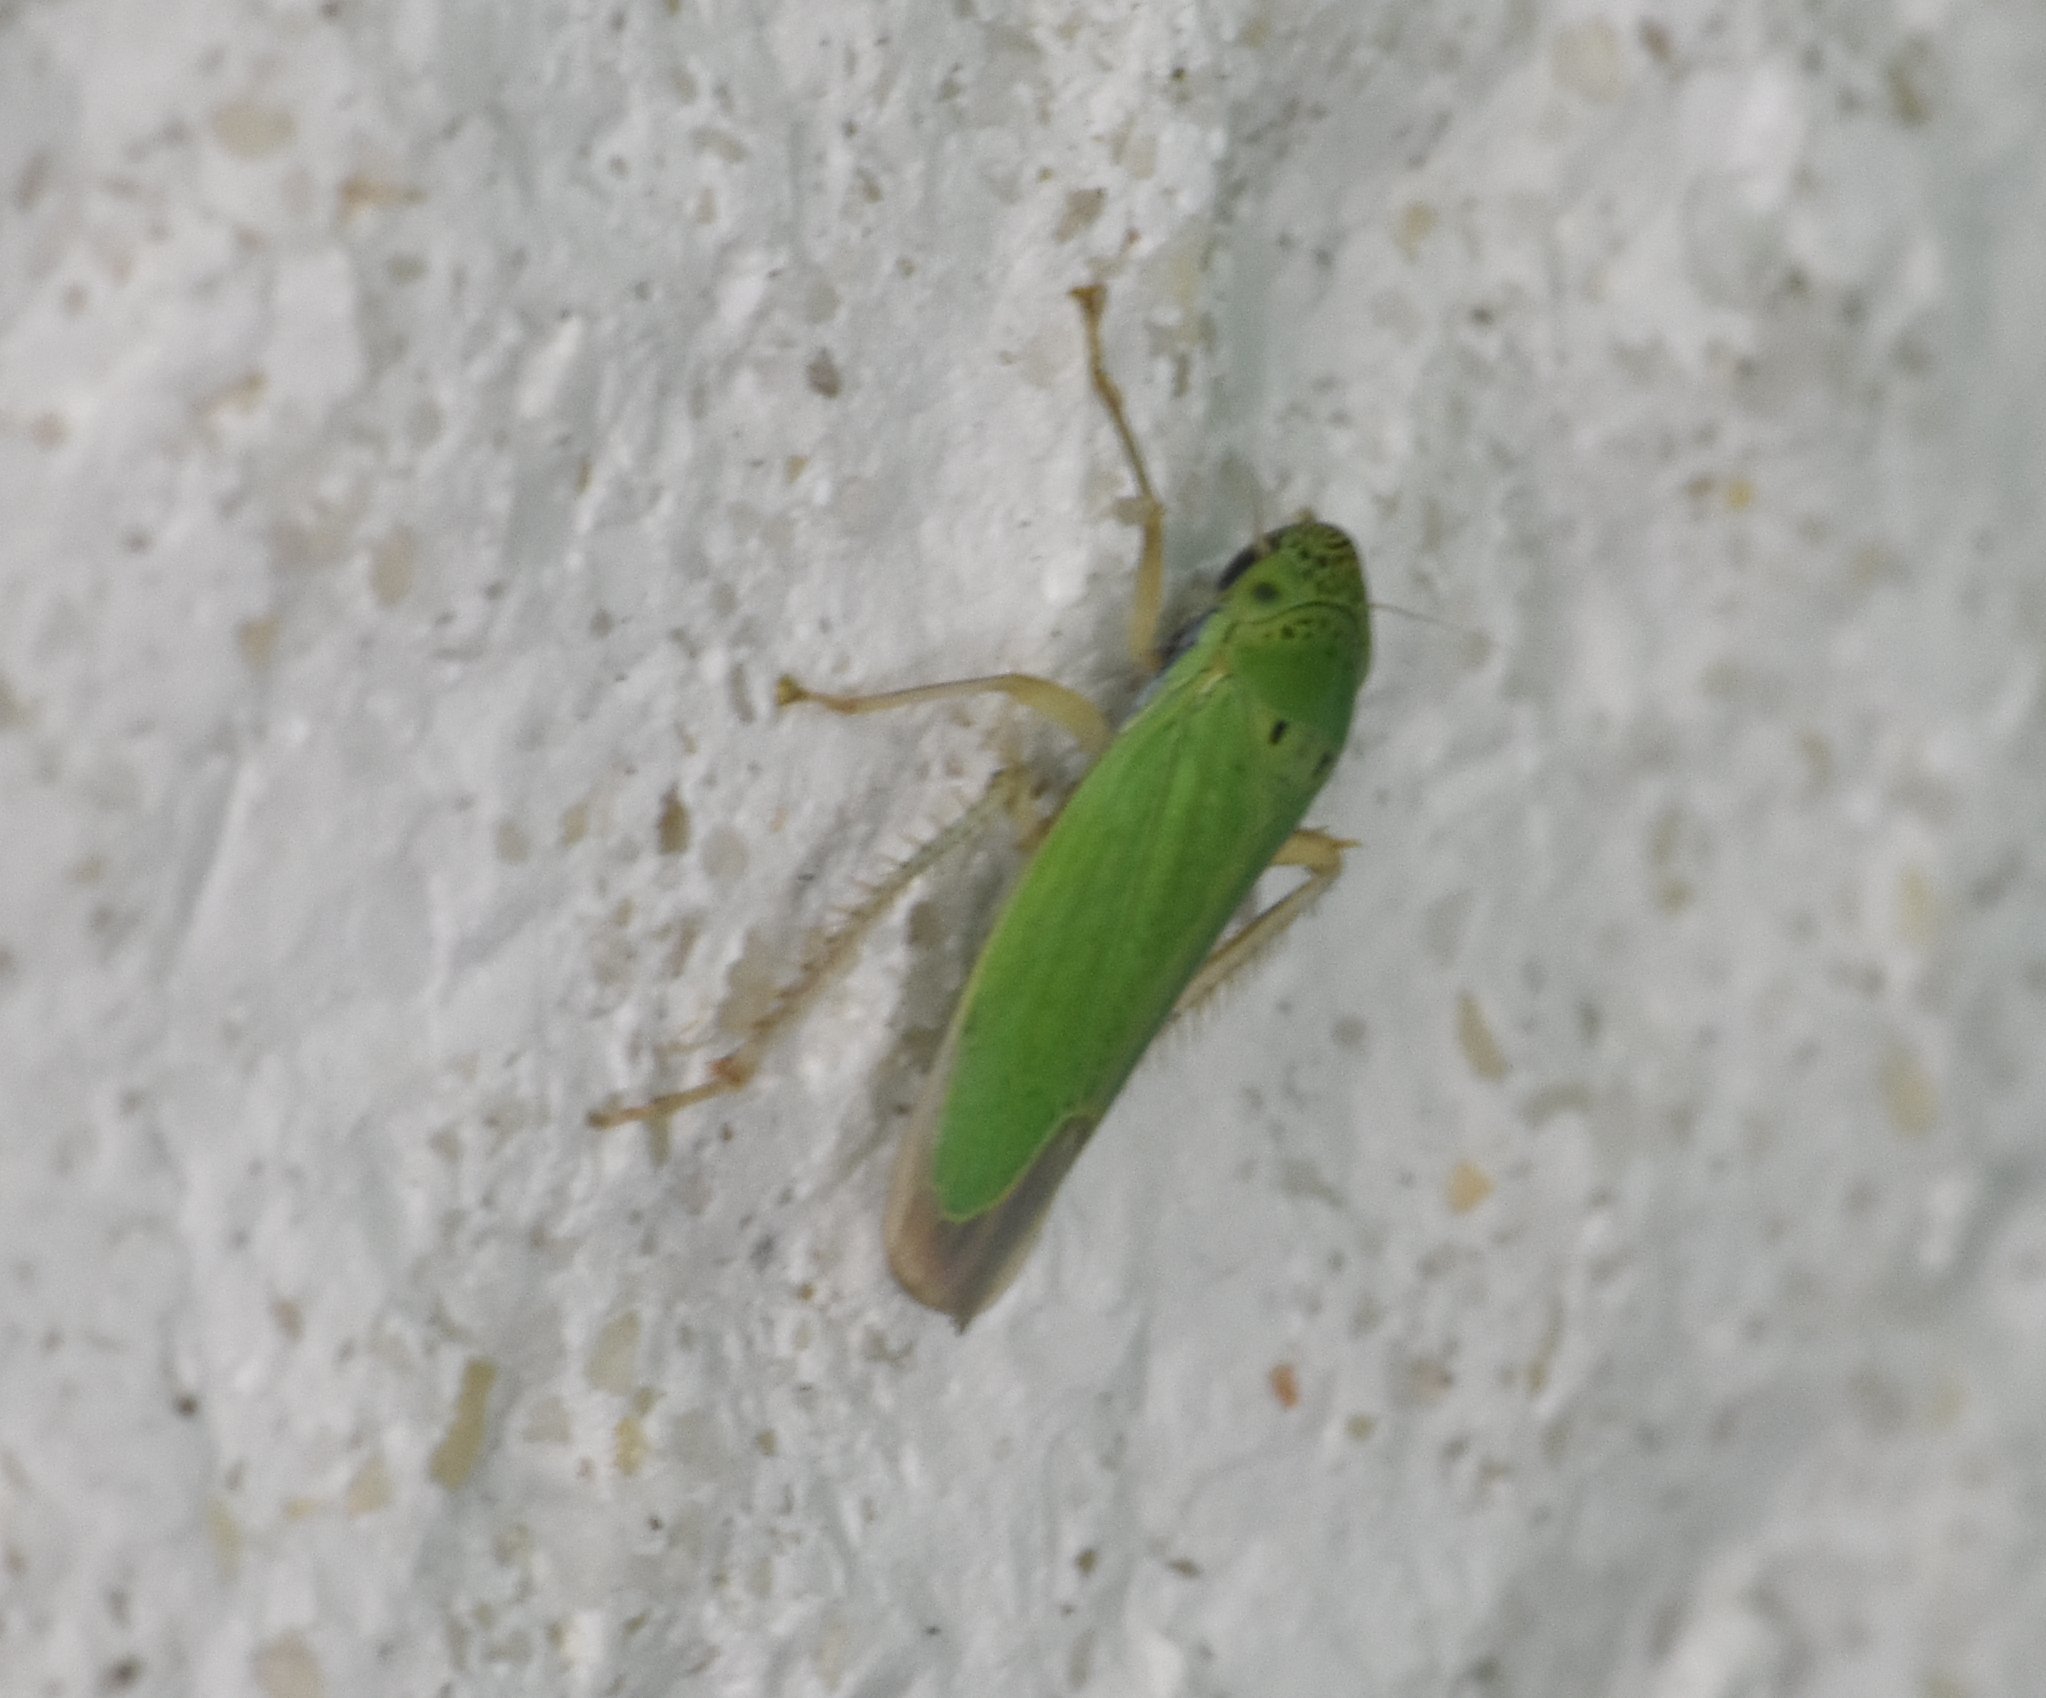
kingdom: Animalia
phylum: Arthropoda
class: Insecta
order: Hemiptera
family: Cicadellidae
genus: Hortensia
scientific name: Hortensia similis
